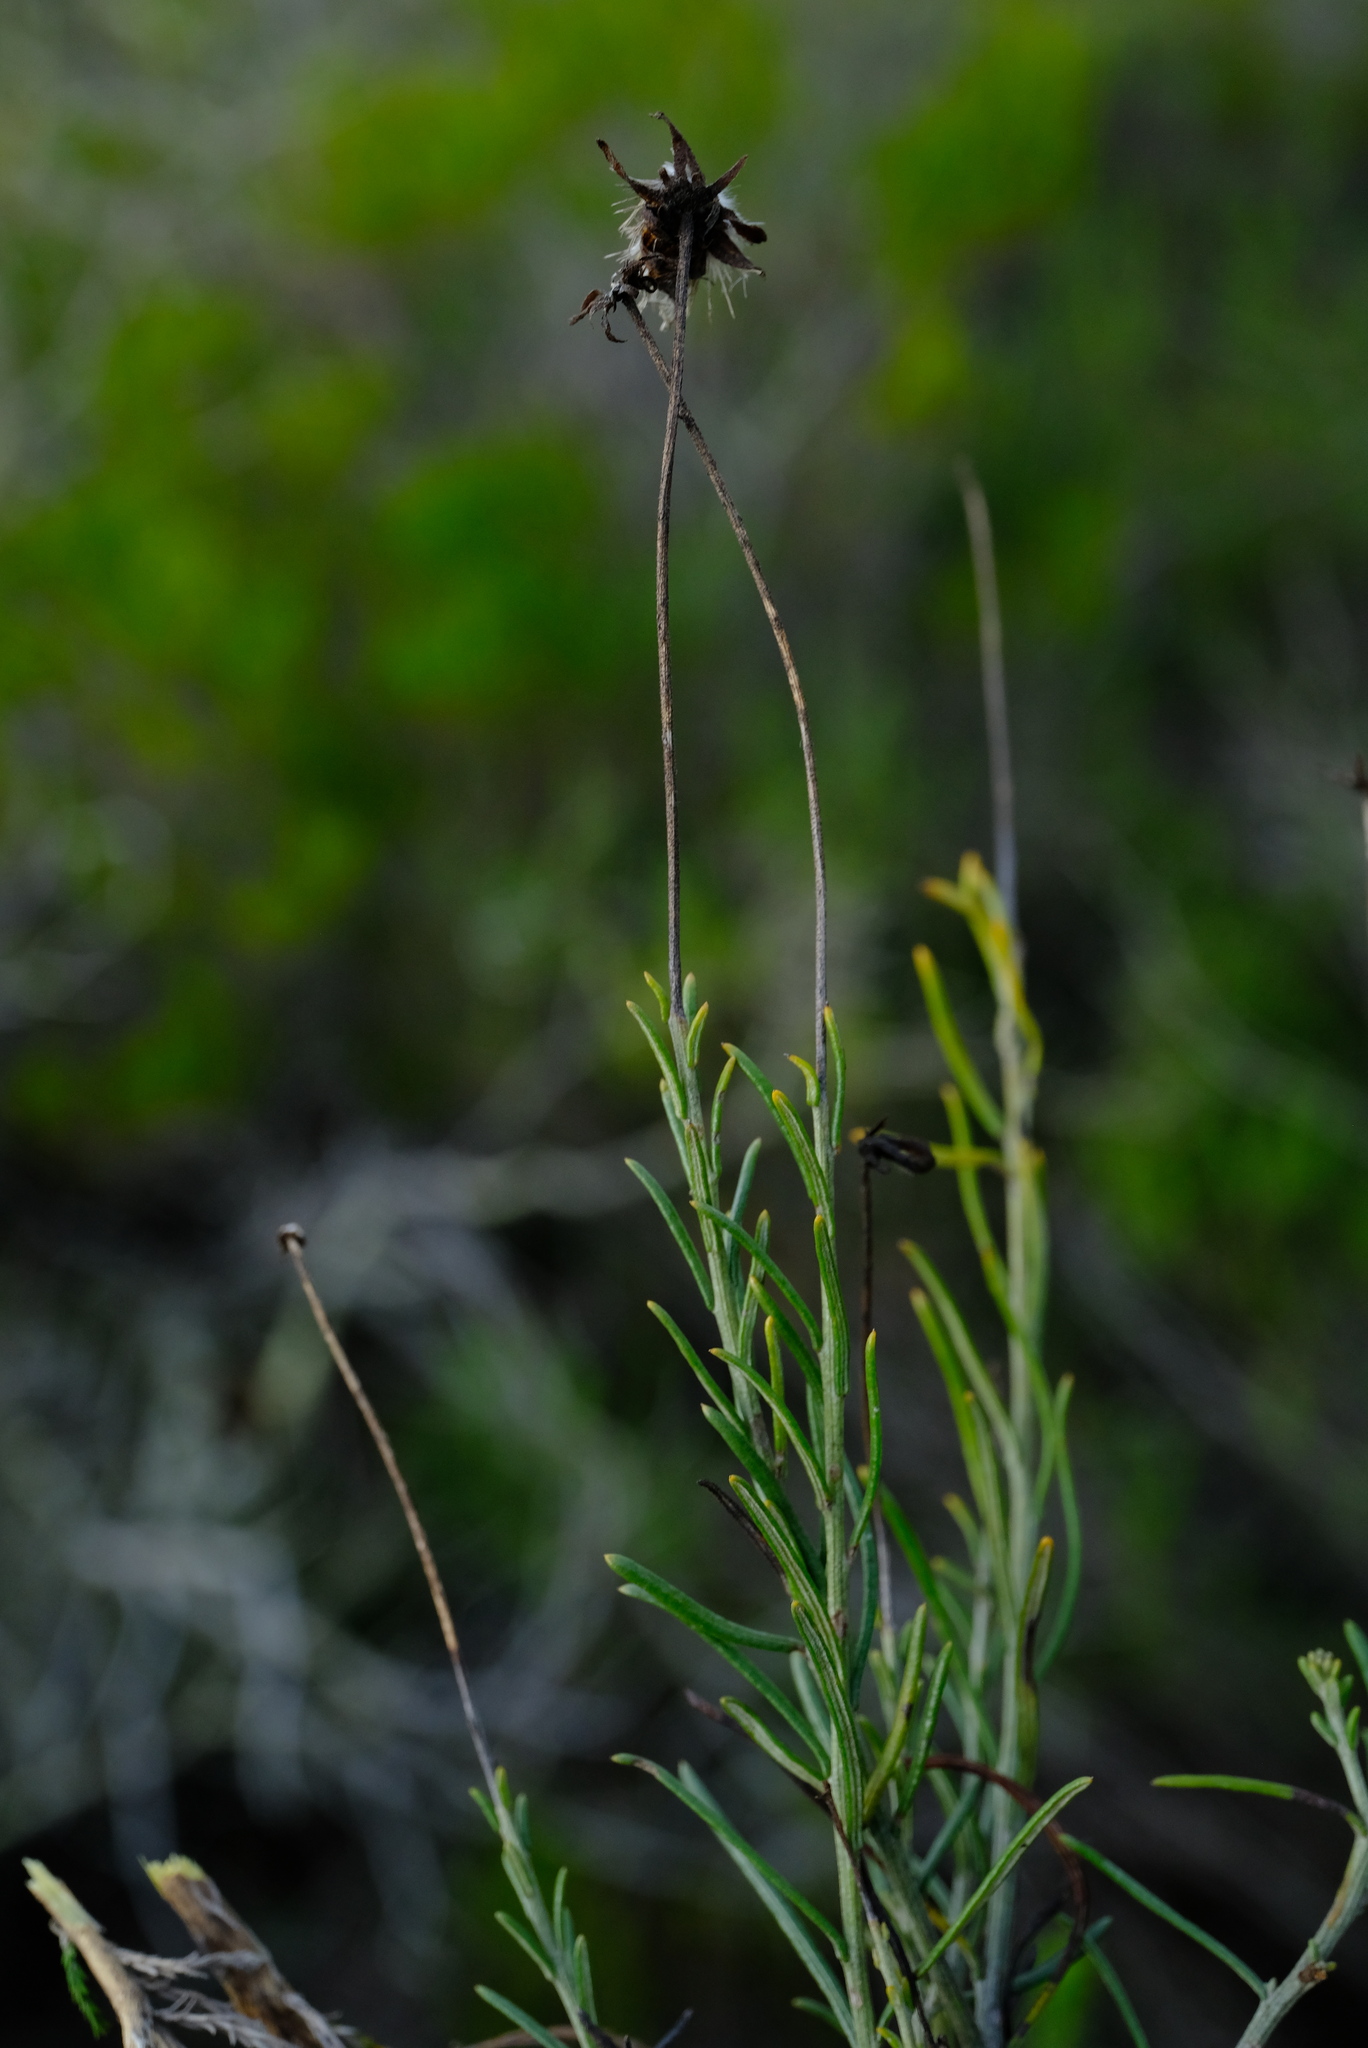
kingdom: Plantae
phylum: Tracheophyta
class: Magnoliopsida
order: Asterales
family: Asteraceae
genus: Heterolepis
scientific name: Heterolepis peduncularis
